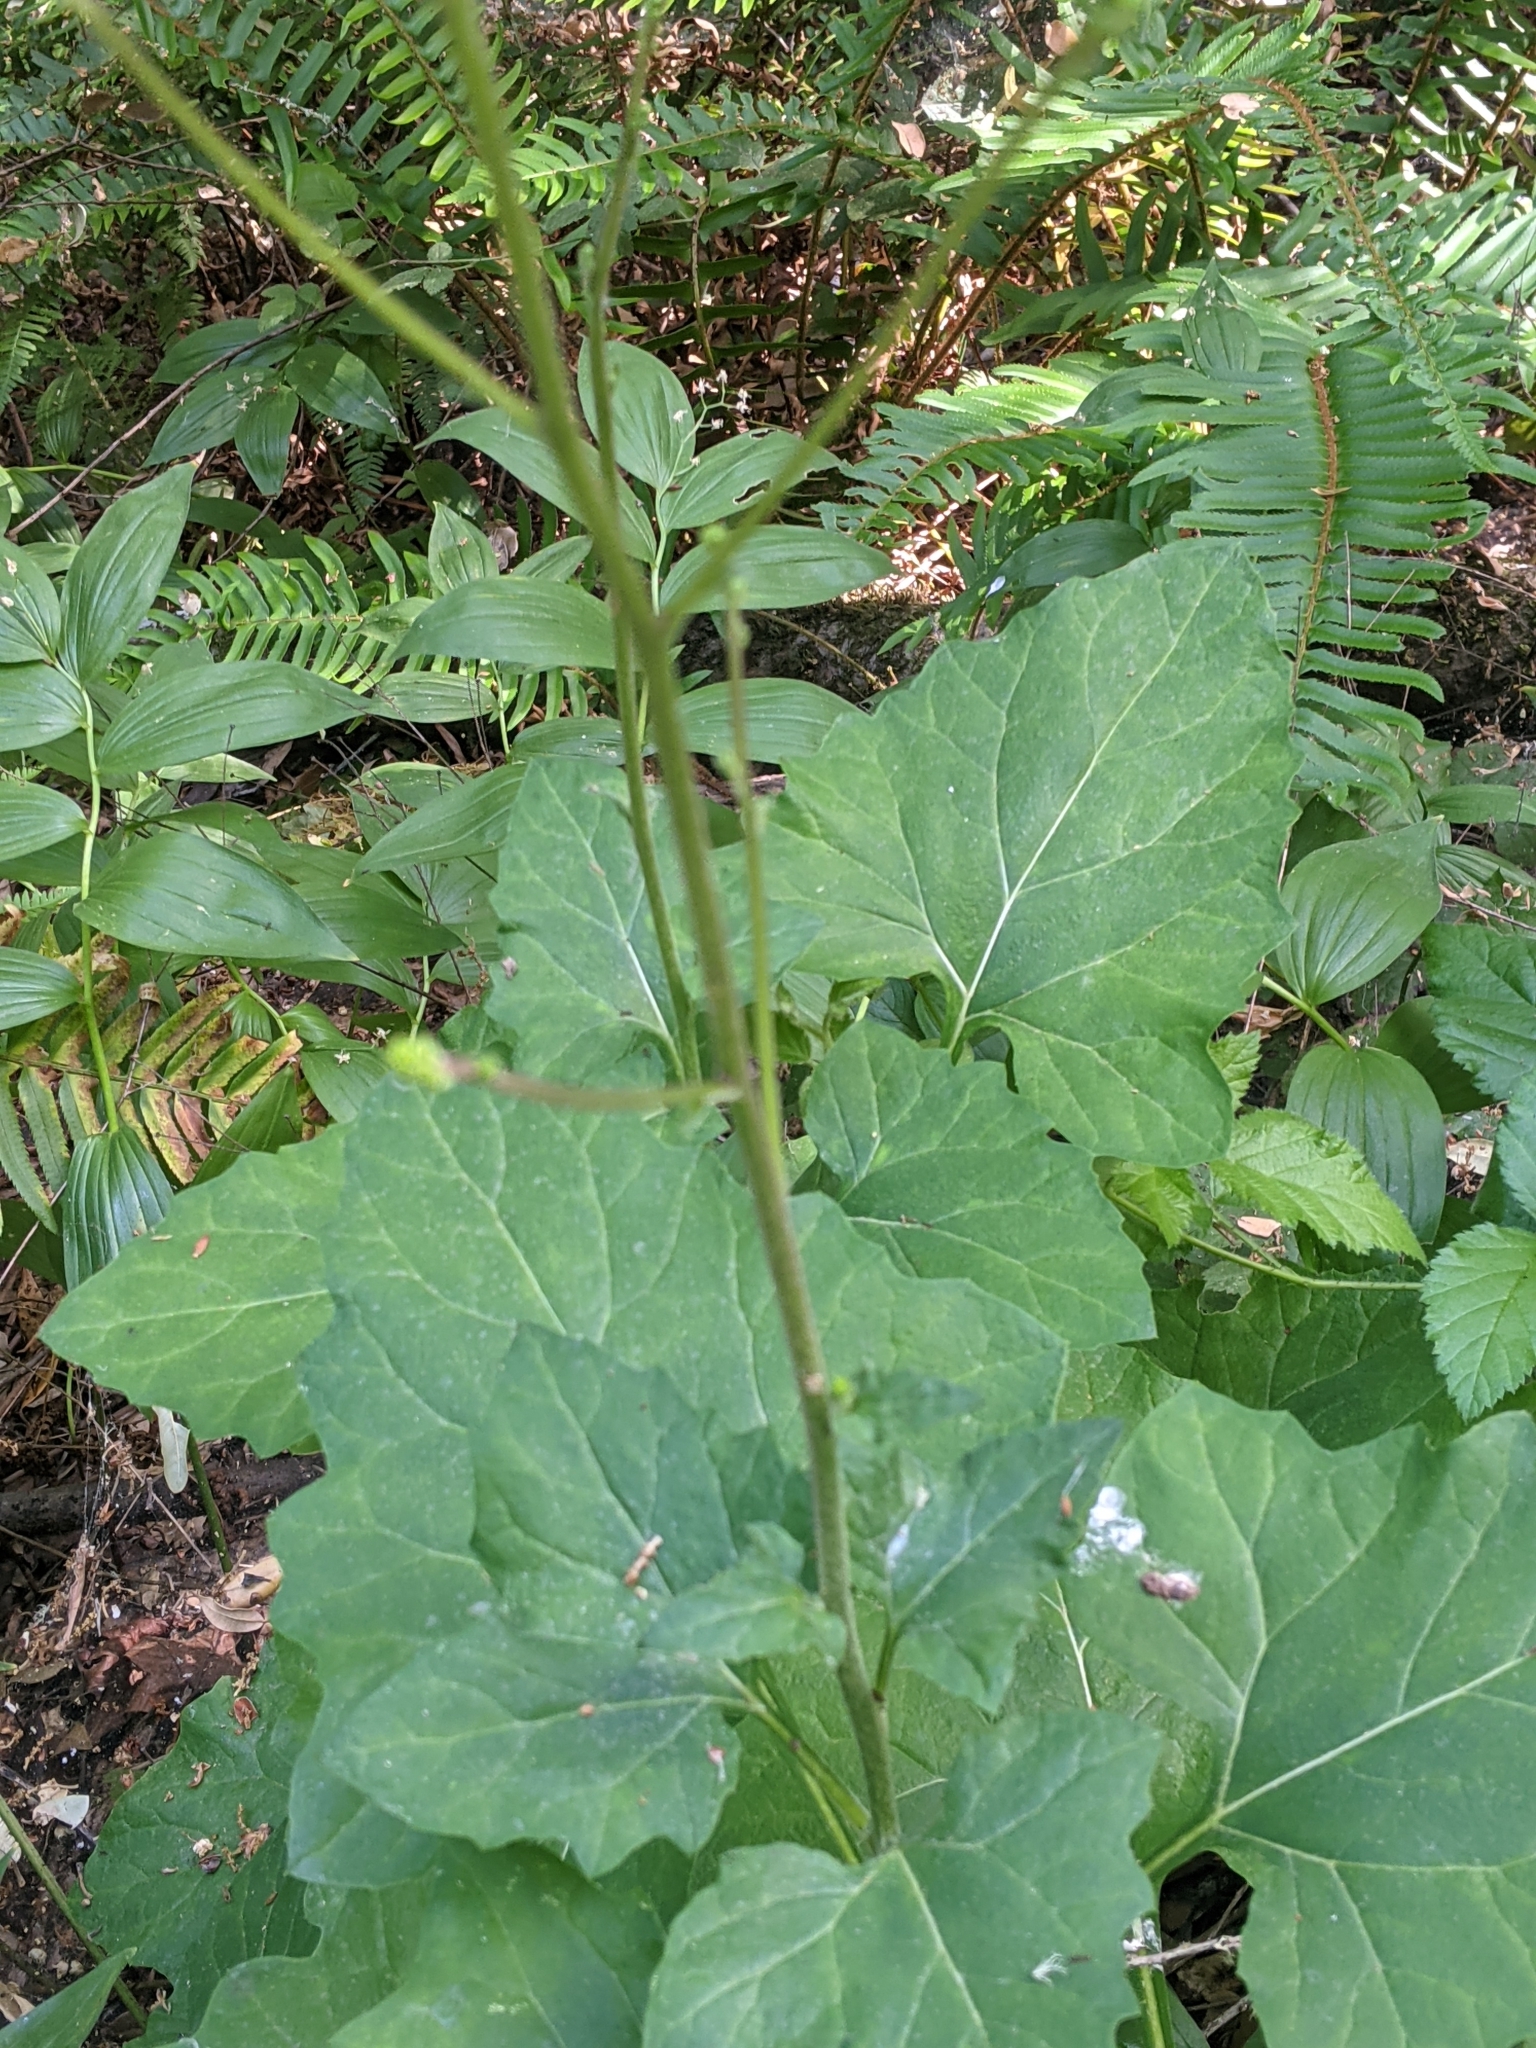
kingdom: Plantae
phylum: Tracheophyta
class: Magnoliopsida
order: Asterales
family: Asteraceae
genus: Adenocaulon
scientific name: Adenocaulon bicolor
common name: Trailplant
